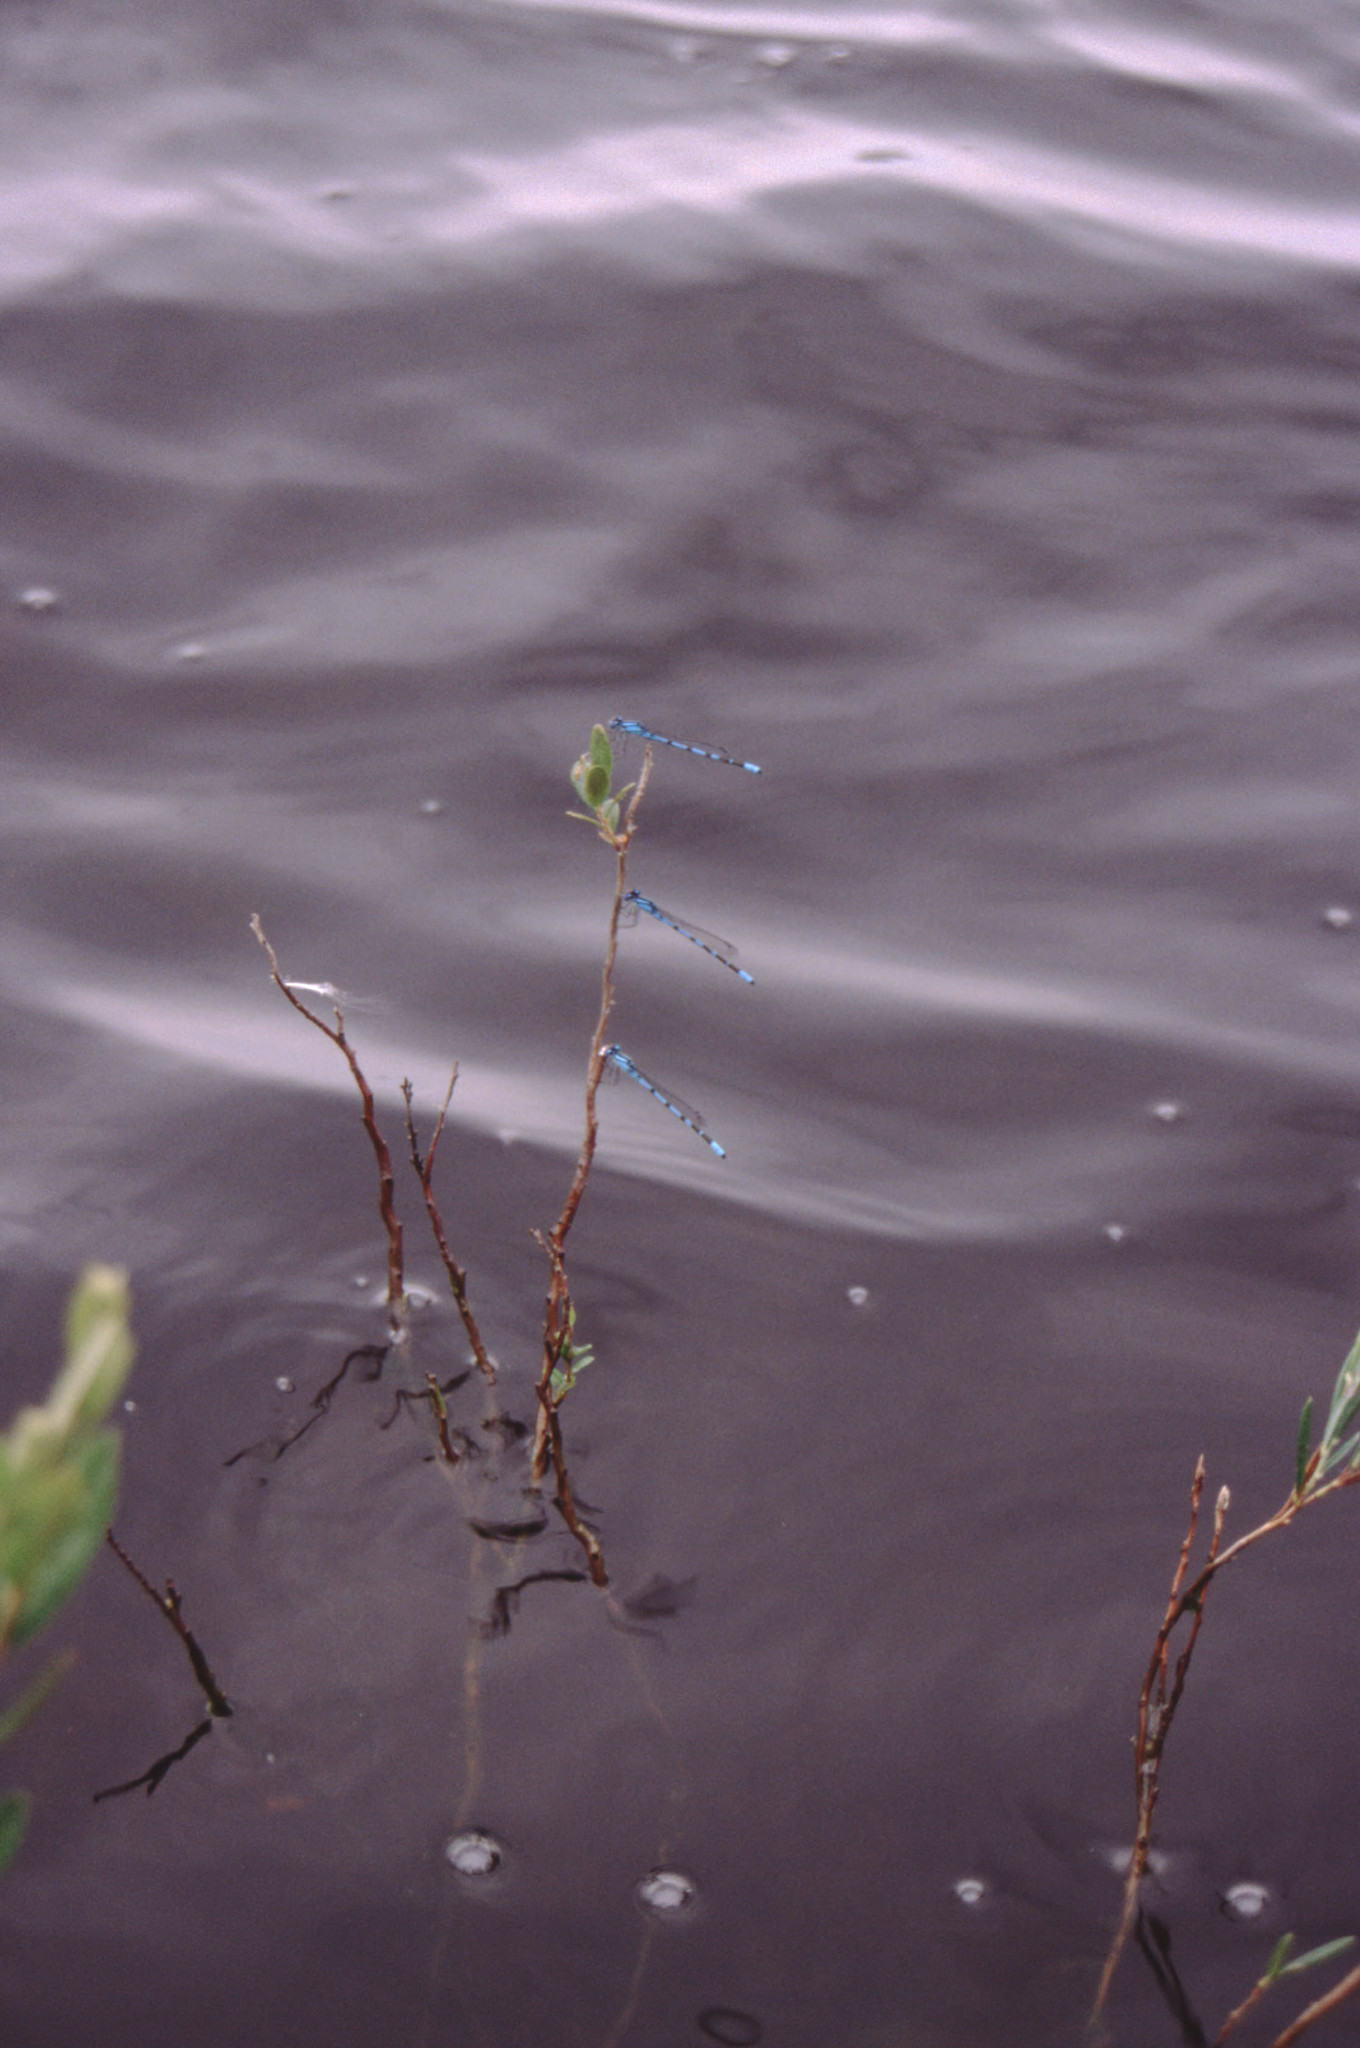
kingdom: Animalia
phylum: Arthropoda
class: Insecta
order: Odonata
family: Coenagrionidae
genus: Enallagma
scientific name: Enallagma cyathigerum
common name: Common blue damselfly
